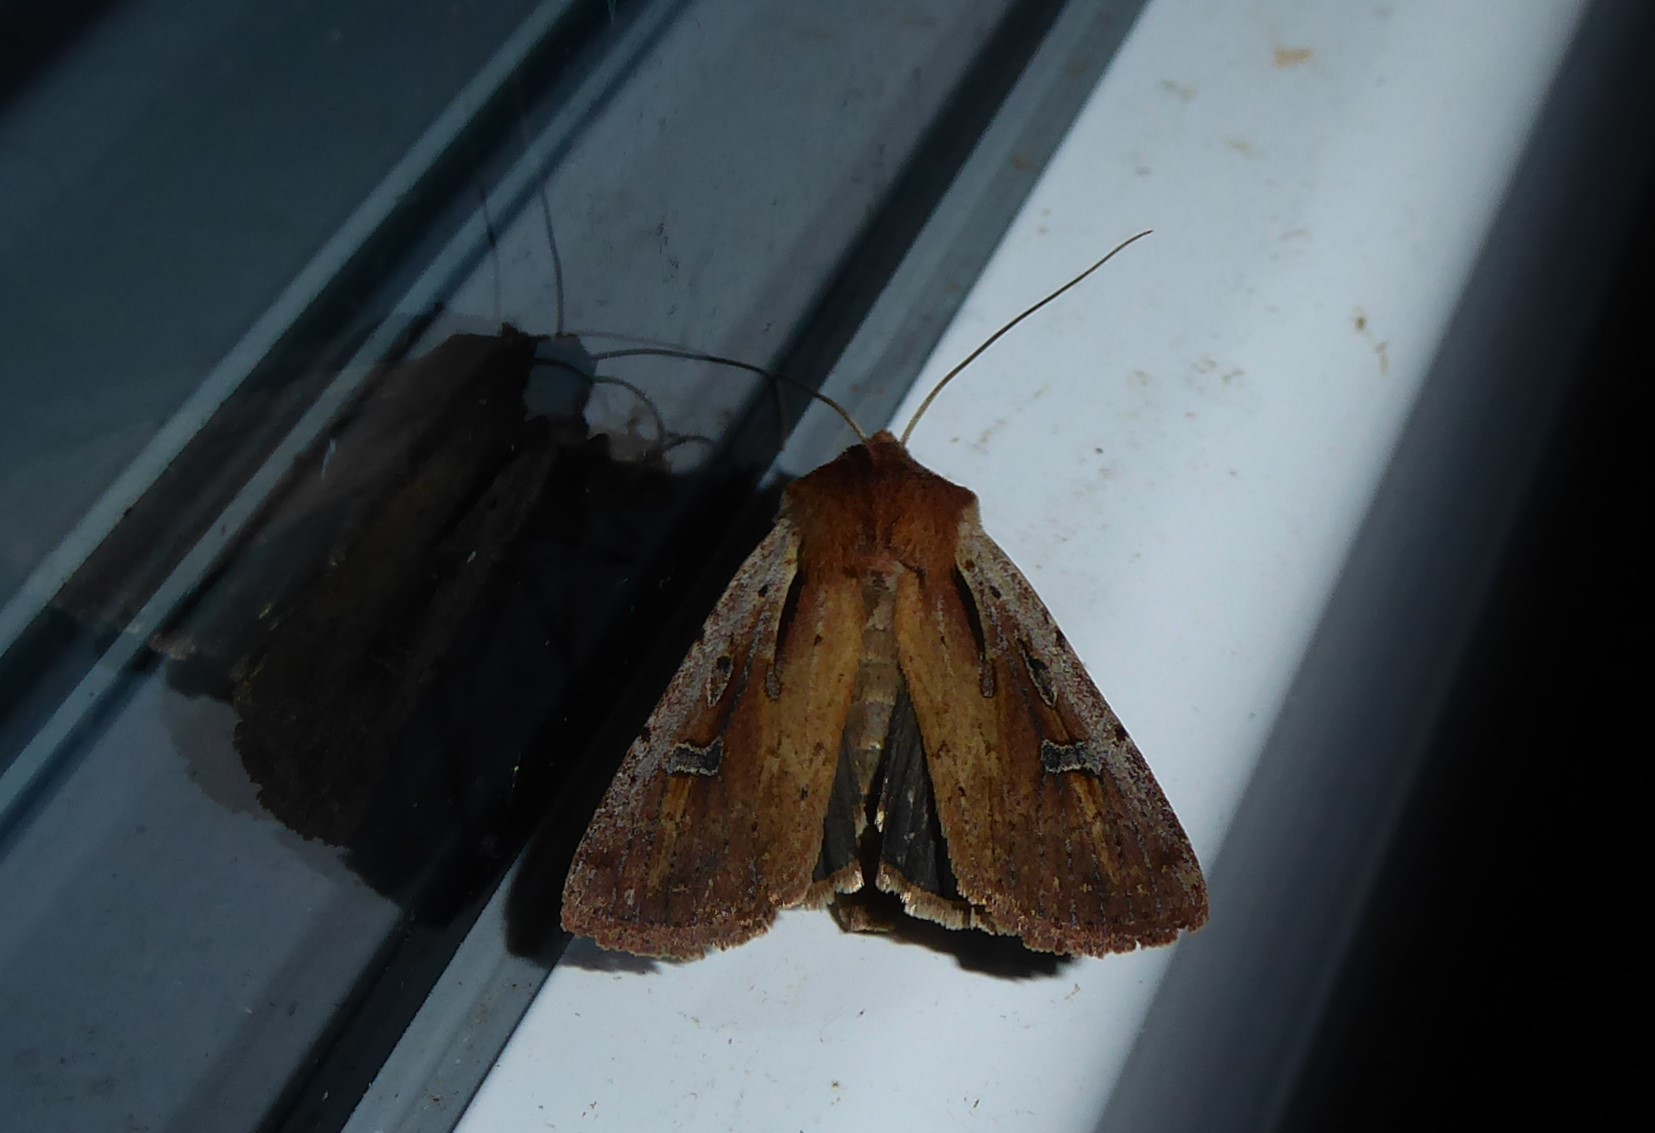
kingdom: Animalia
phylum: Arthropoda
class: Insecta
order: Lepidoptera
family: Noctuidae
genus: Ichneutica
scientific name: Ichneutica atristriga
